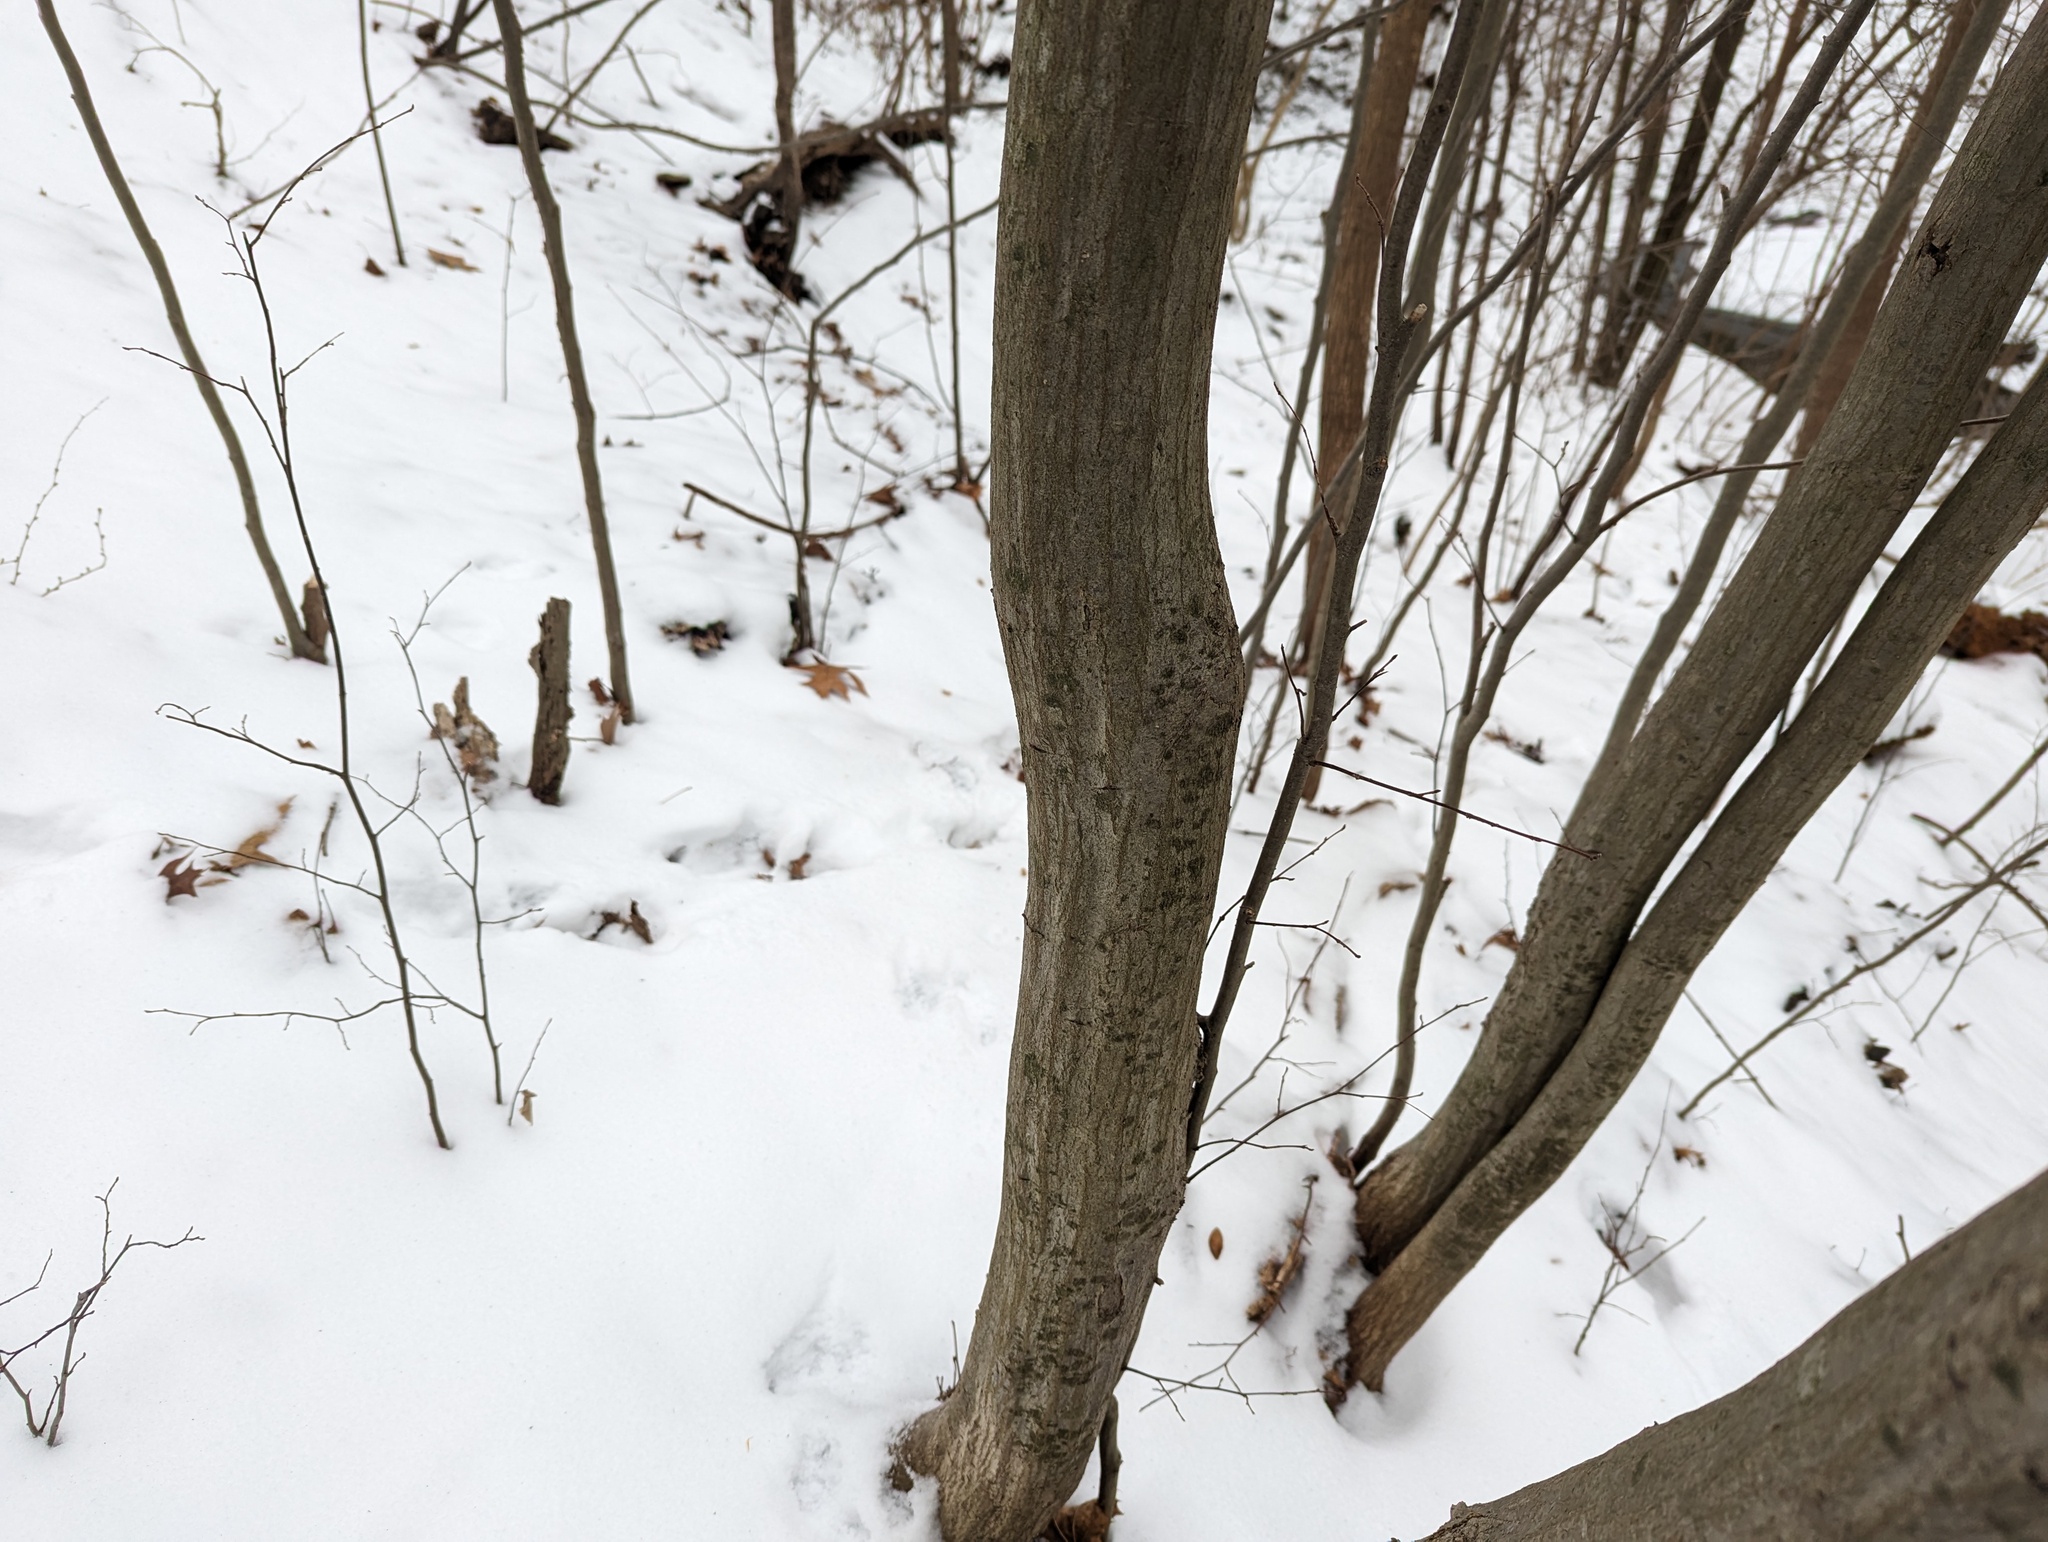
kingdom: Plantae
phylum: Tracheophyta
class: Magnoliopsida
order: Fagales
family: Betulaceae
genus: Carpinus
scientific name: Carpinus caroliniana
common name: American hornbeam
